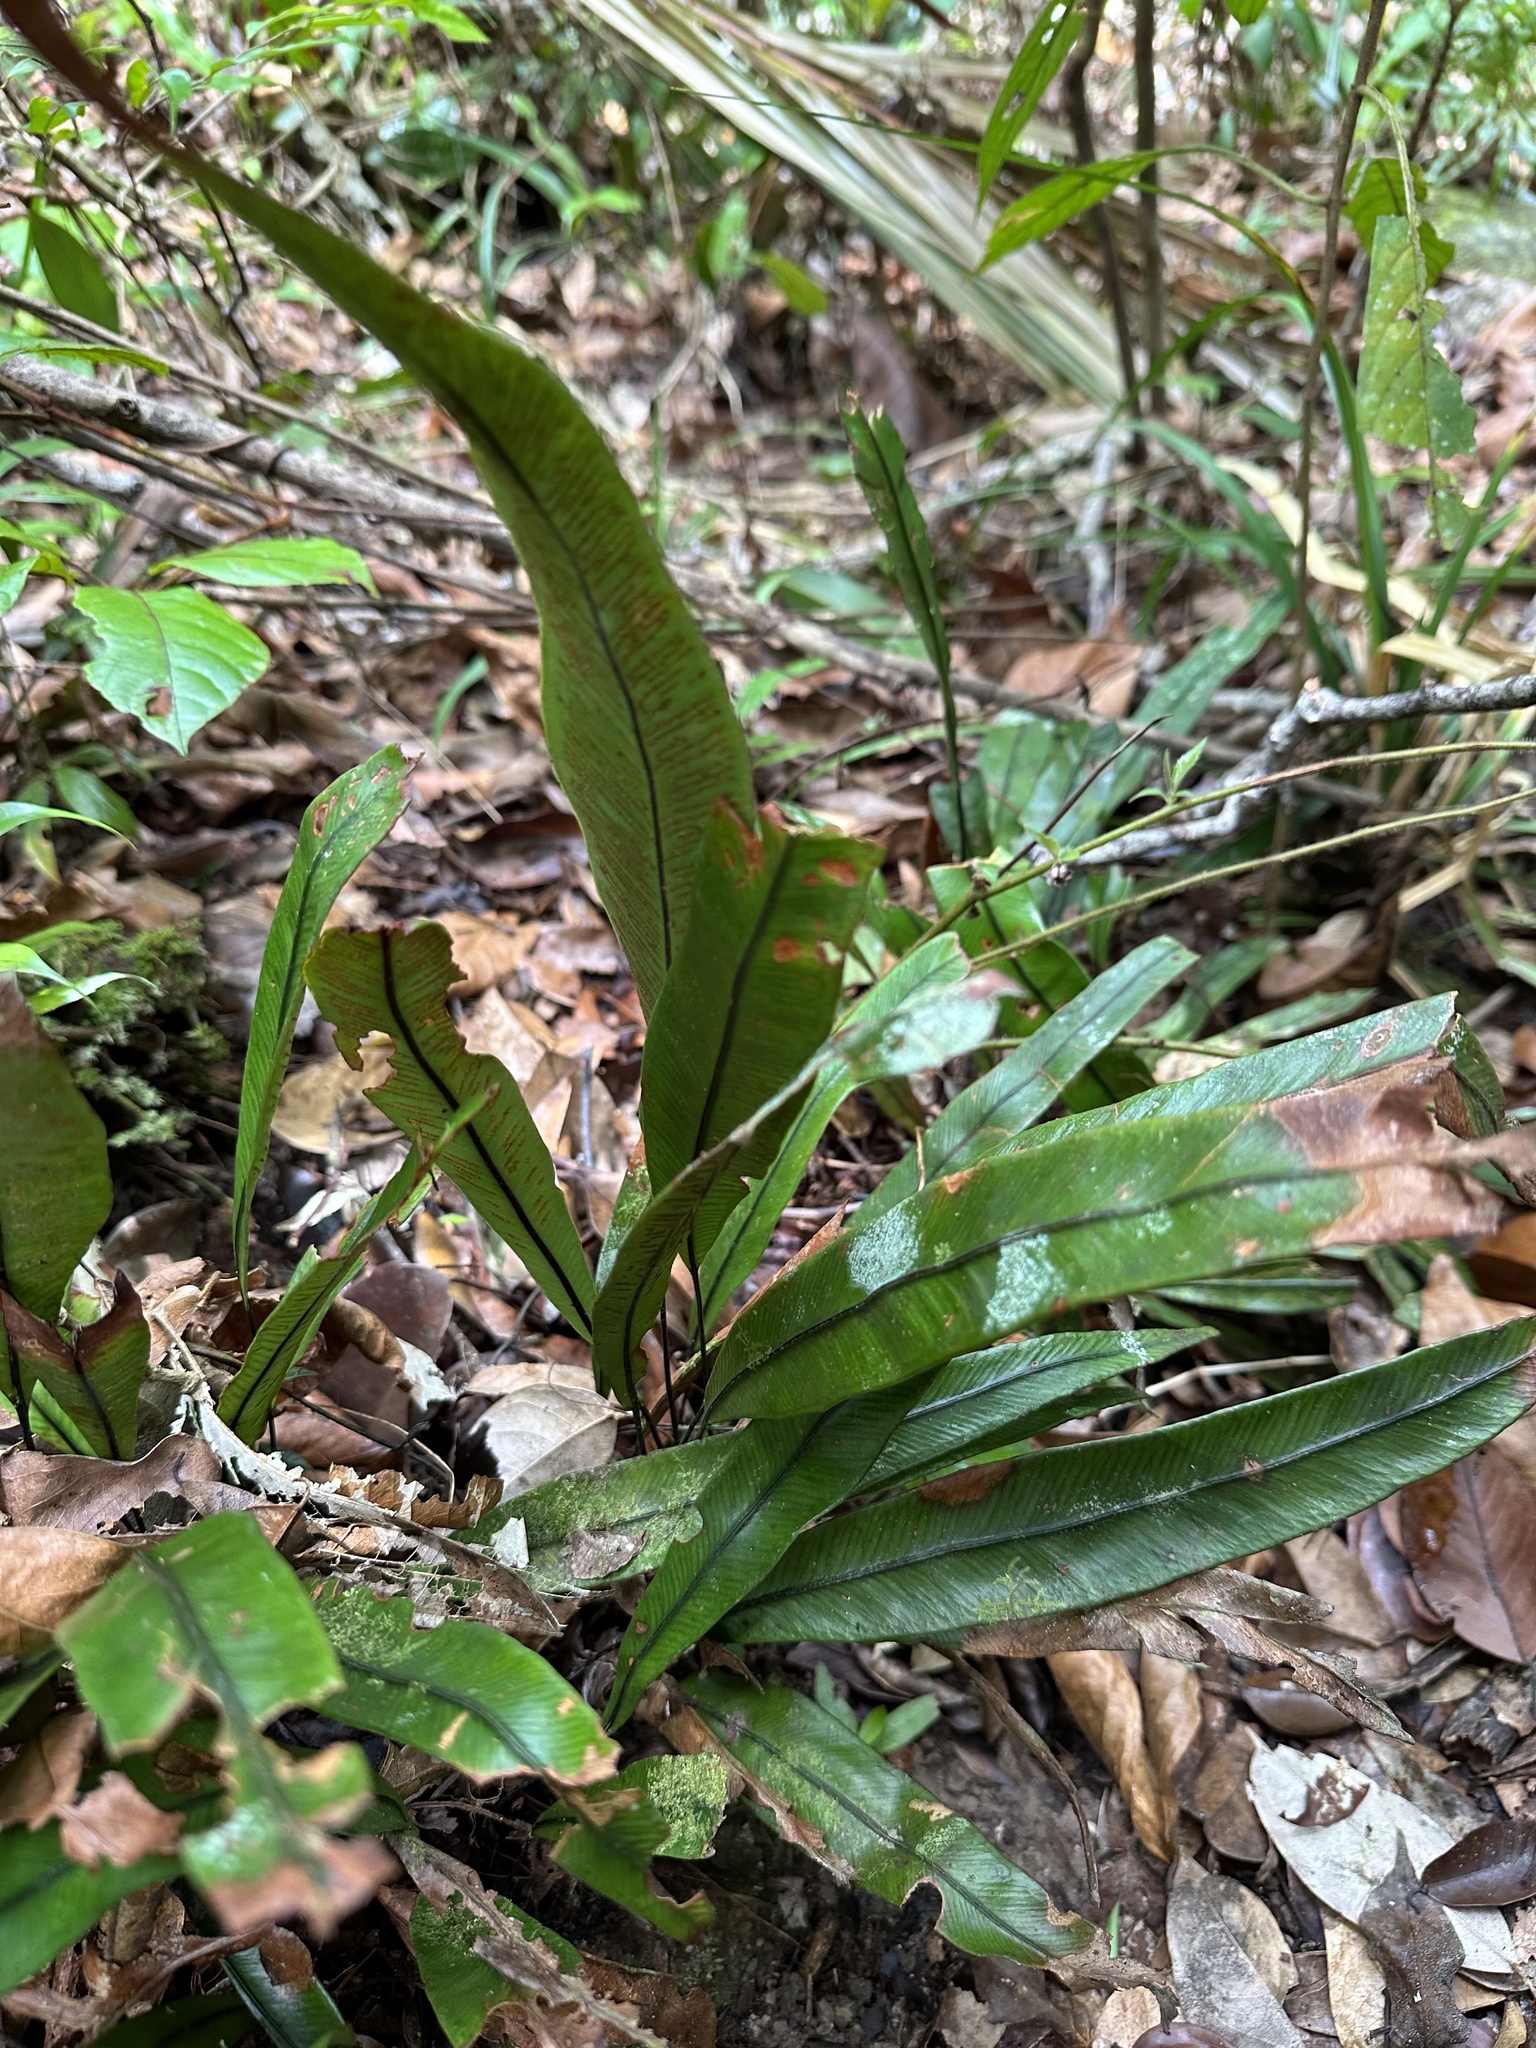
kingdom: Plantae
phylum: Tracheophyta
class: Polypodiopsida
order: Polypodiales
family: Pteridaceae
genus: Syngramma
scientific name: Syngramma lobbiana
